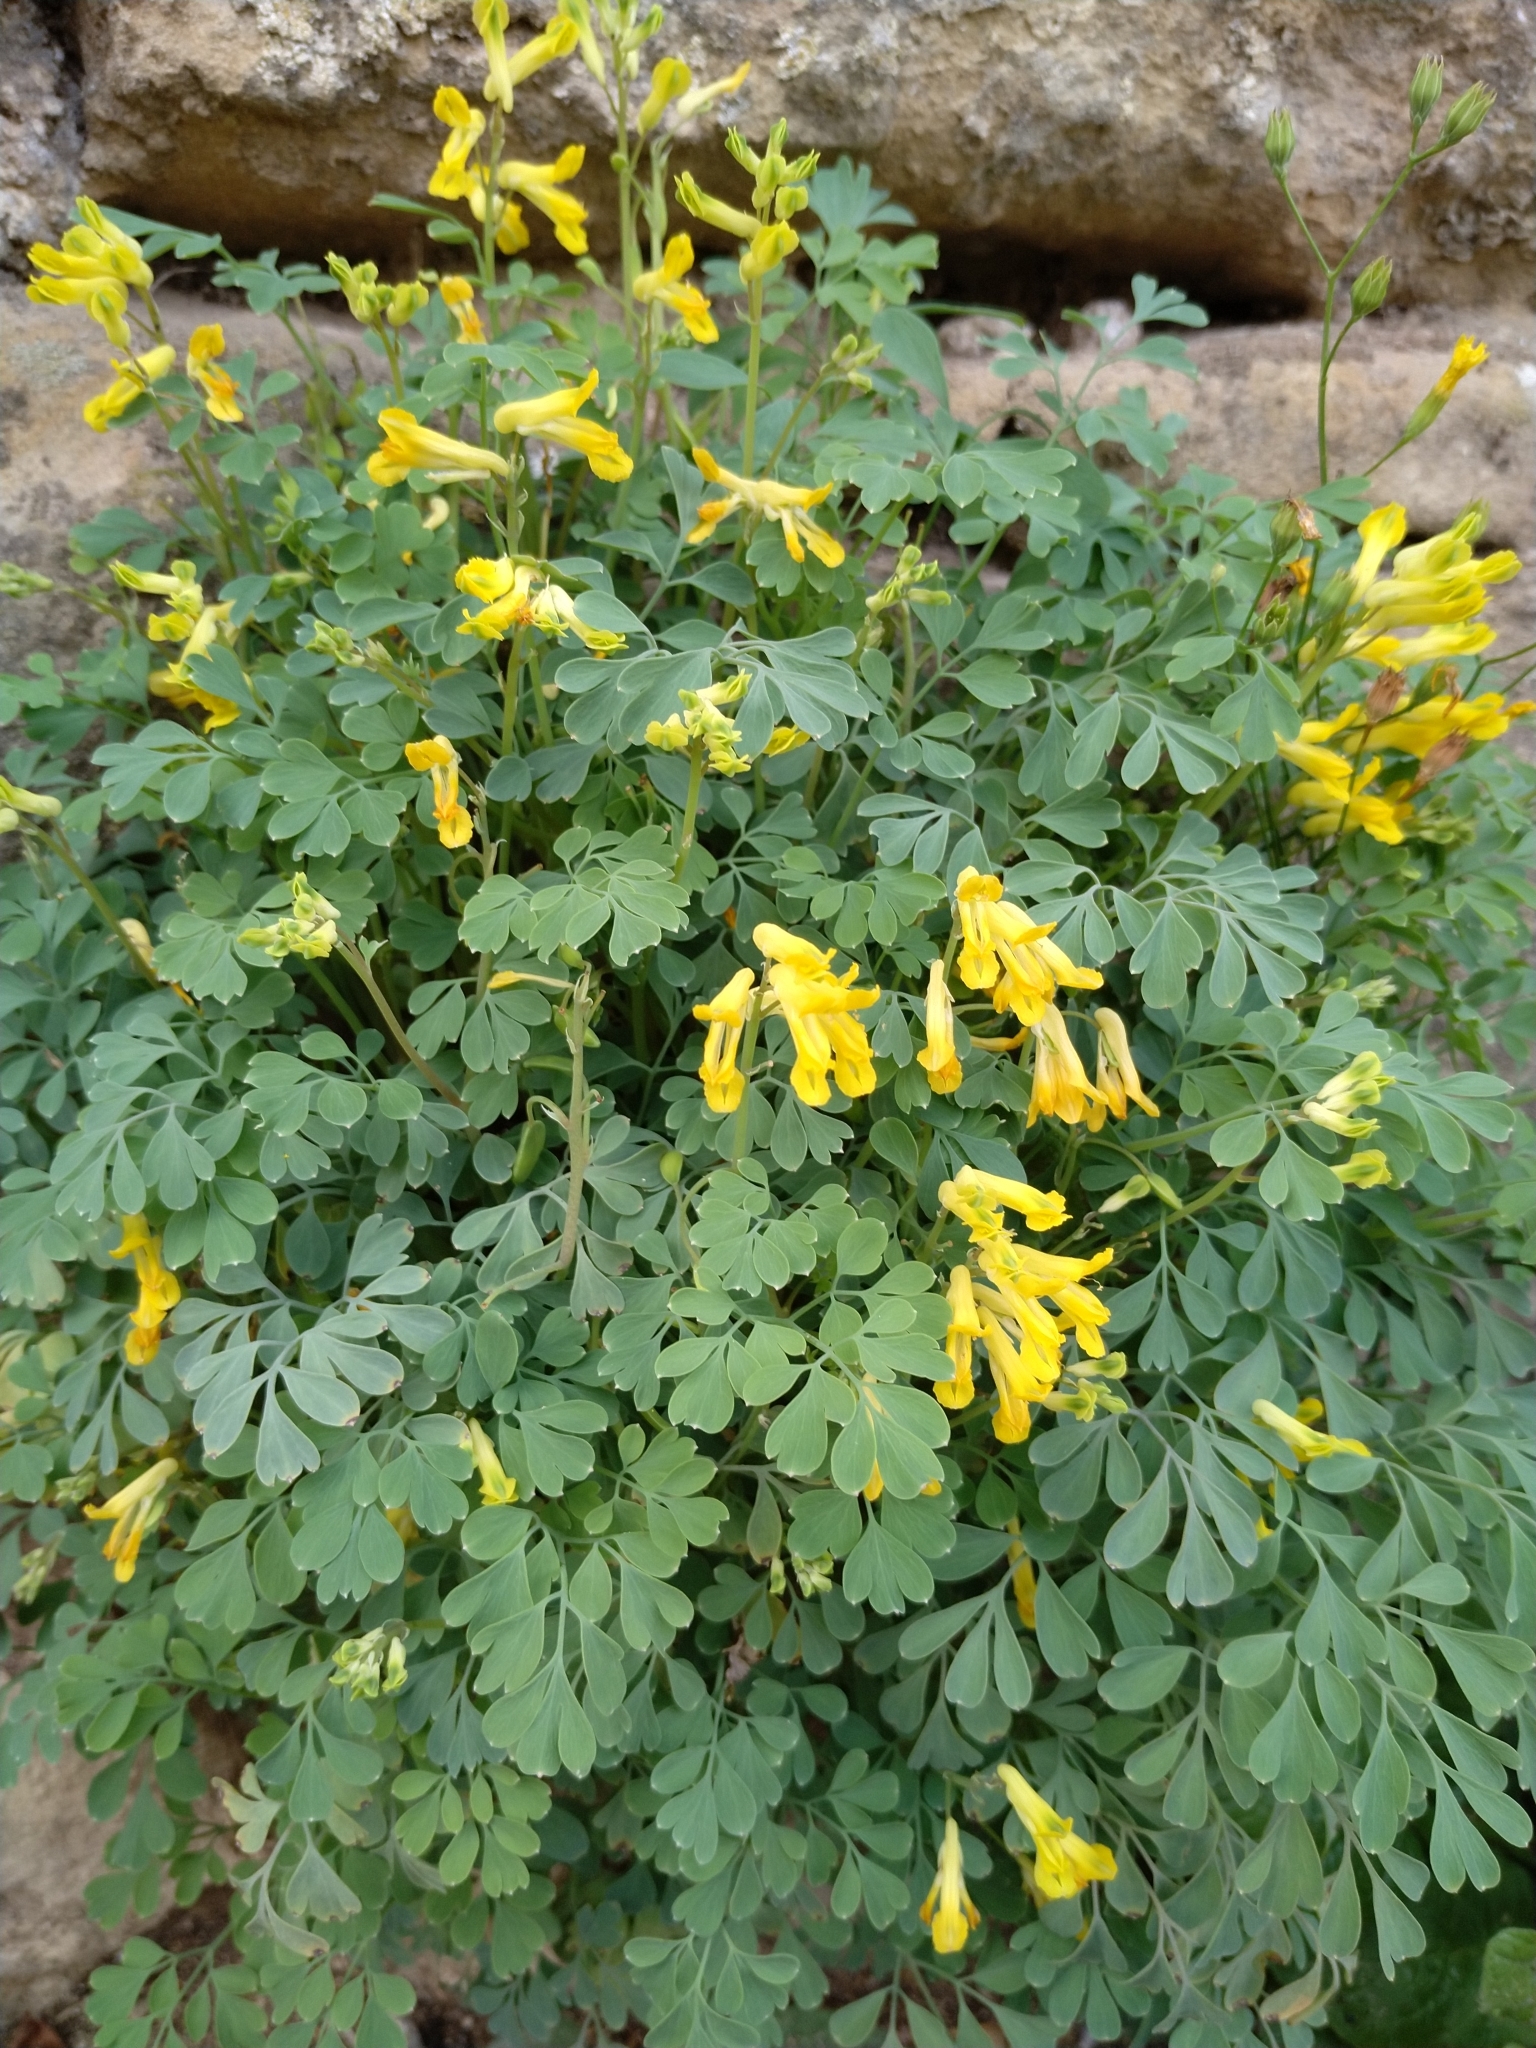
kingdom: Plantae
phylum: Tracheophyta
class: Magnoliopsida
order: Ranunculales
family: Papaveraceae
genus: Pseudofumaria
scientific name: Pseudofumaria lutea
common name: Yellow corydalis
